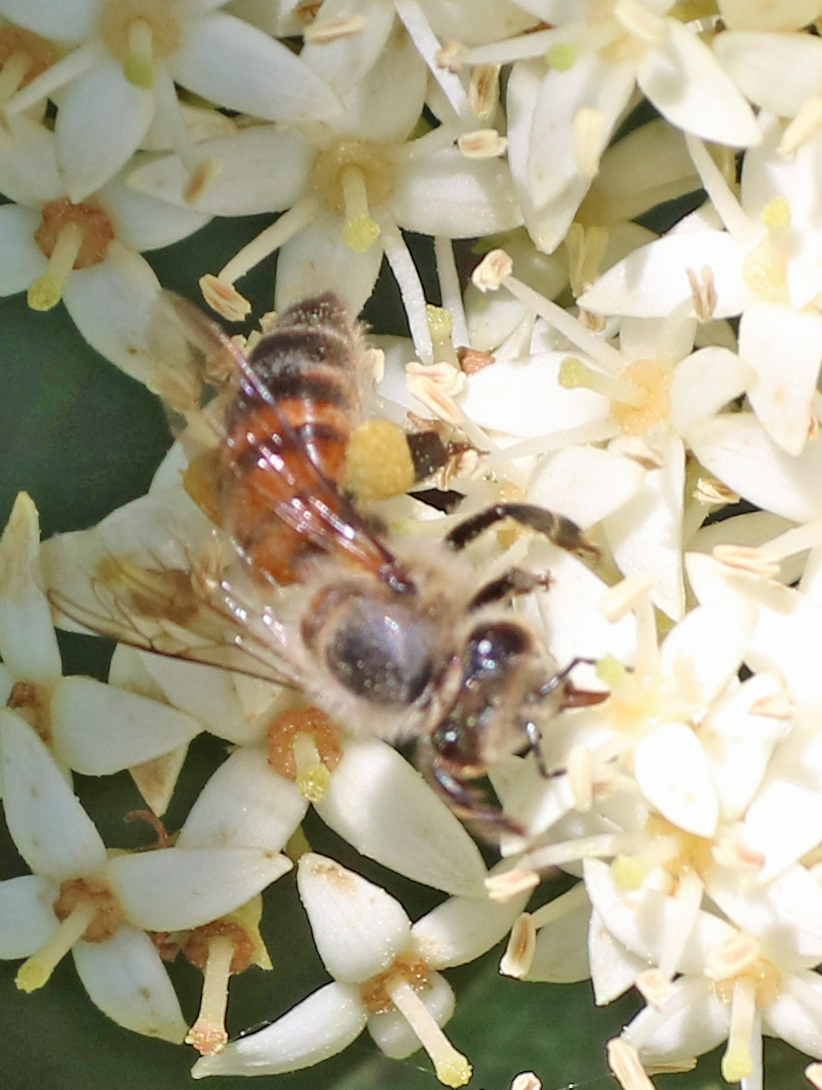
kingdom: Animalia
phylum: Arthropoda
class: Insecta
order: Hymenoptera
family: Apidae
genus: Apis
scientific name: Apis mellifera
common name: Honey bee
